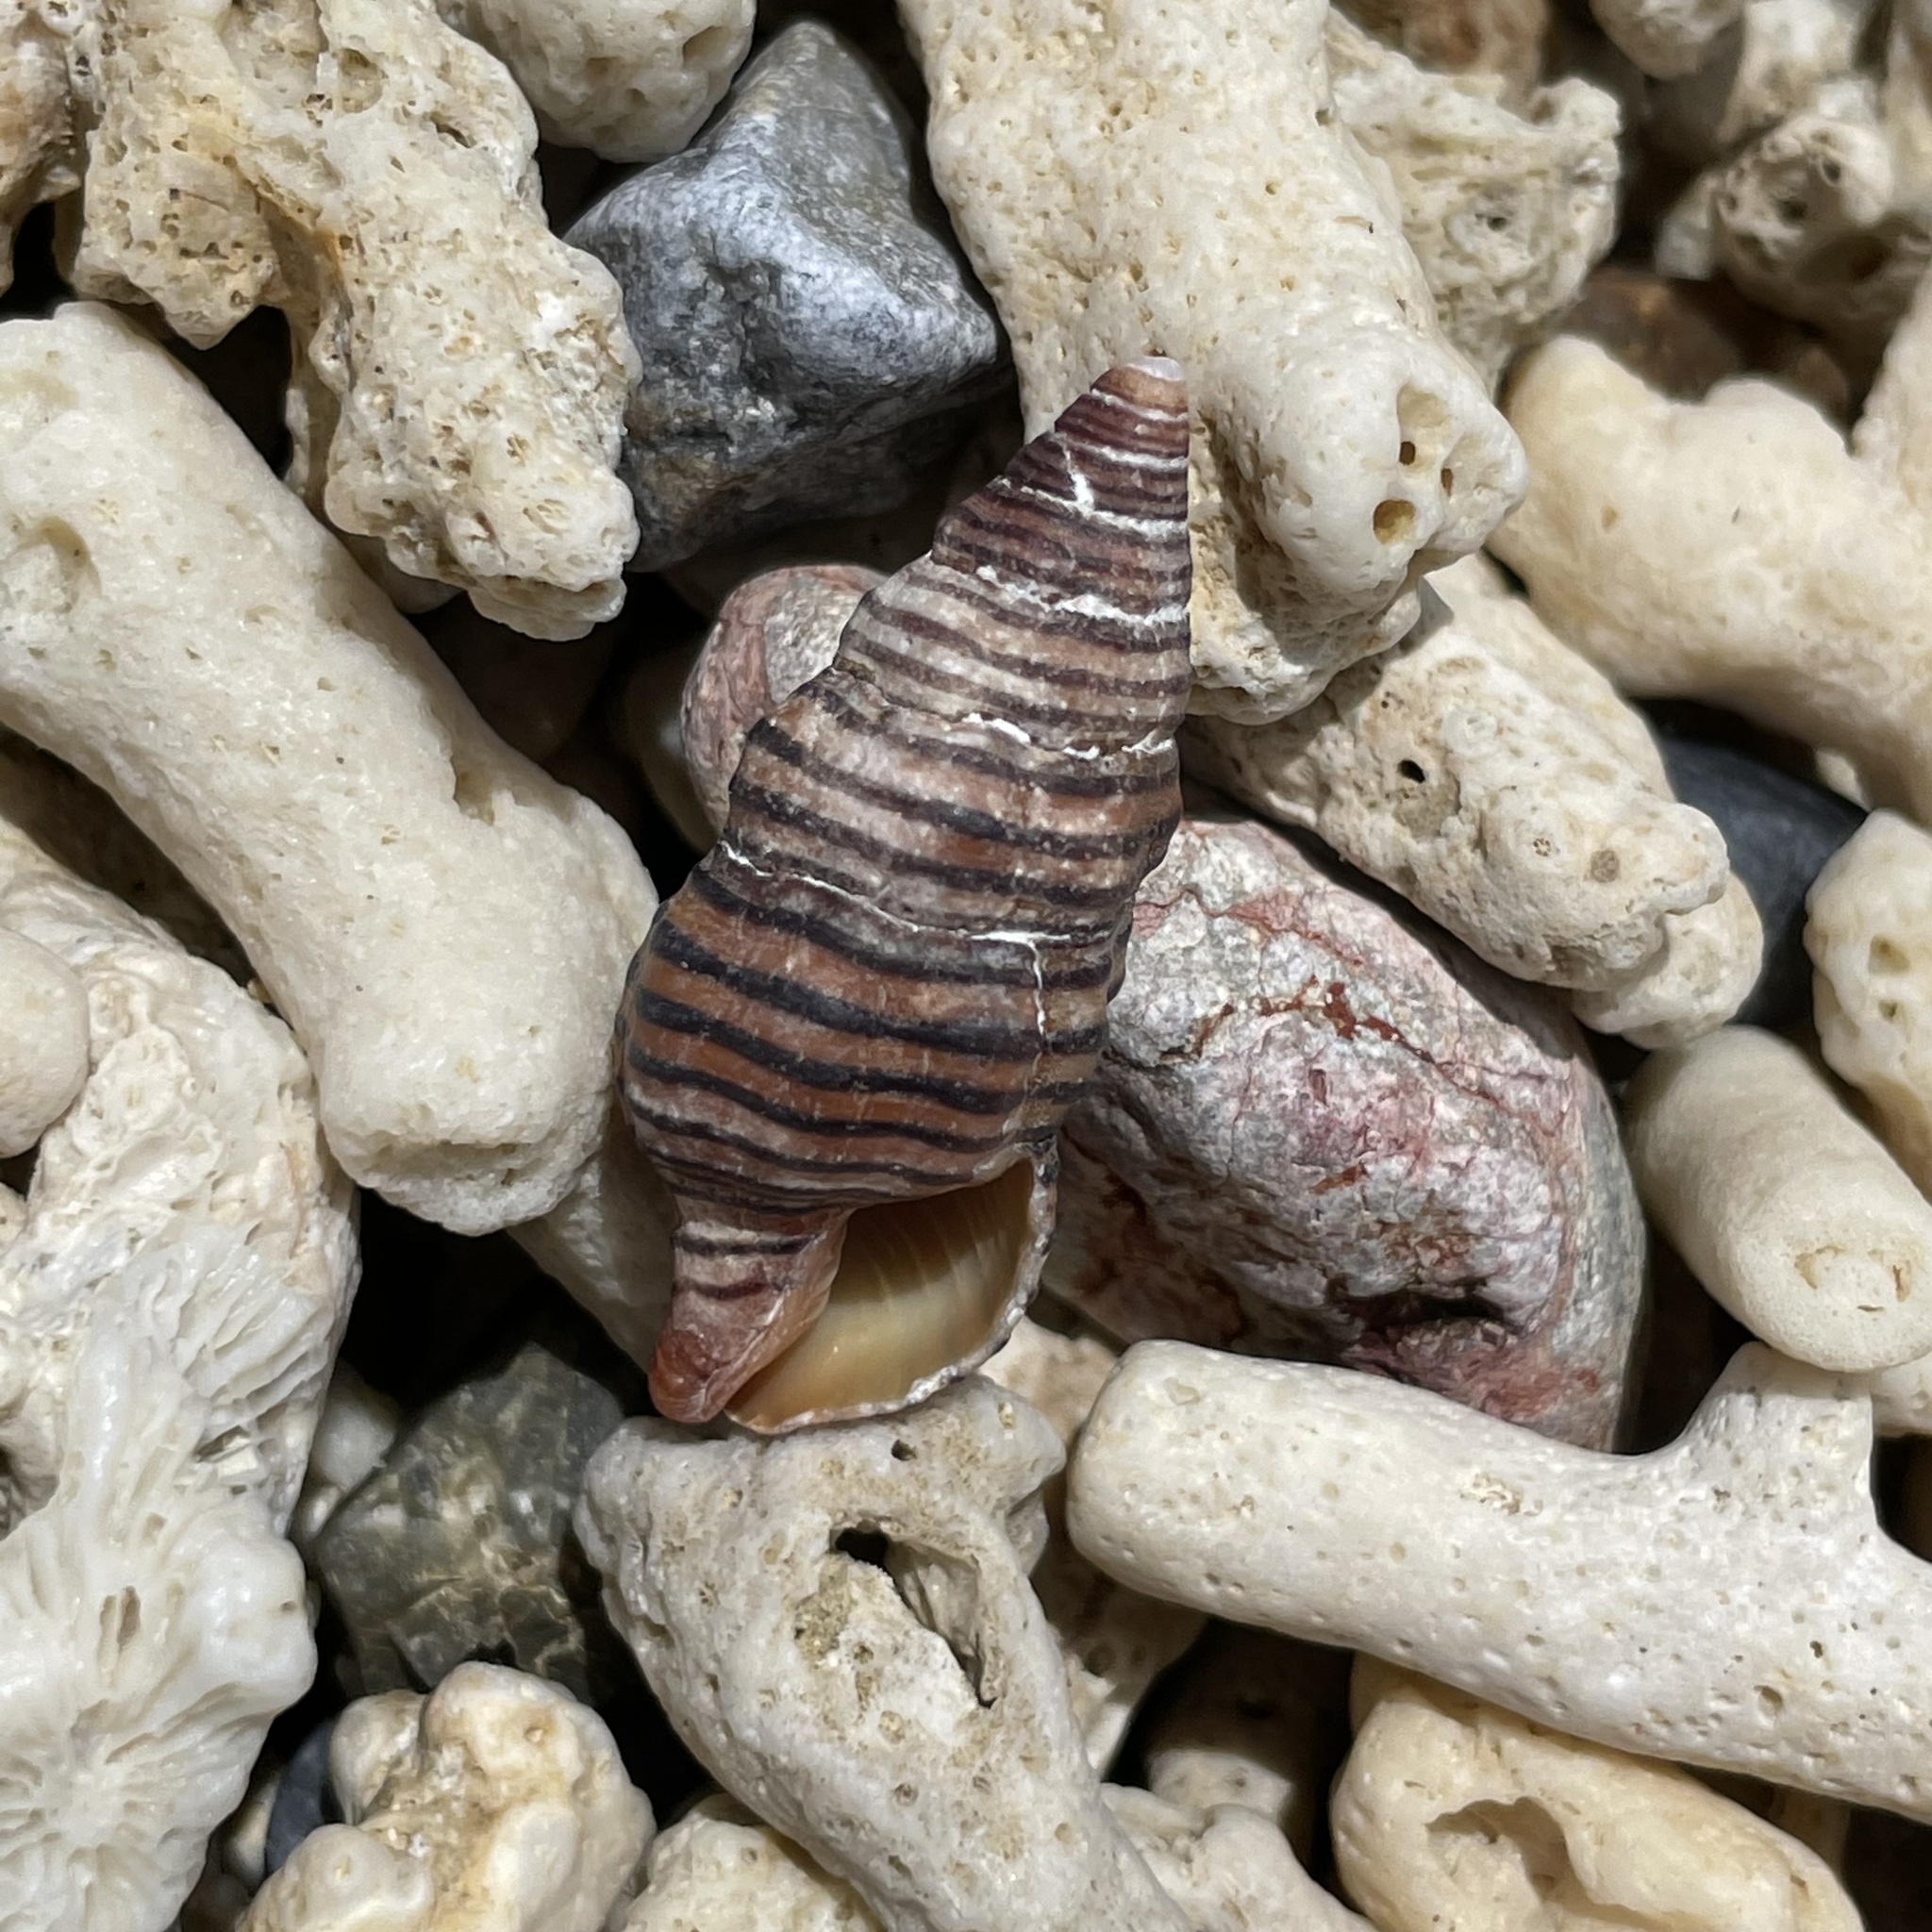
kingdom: Animalia
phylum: Mollusca
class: Gastropoda
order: Neogastropoda
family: Fasciolariidae
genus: Turrilatirus
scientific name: Turrilatirus turritus
